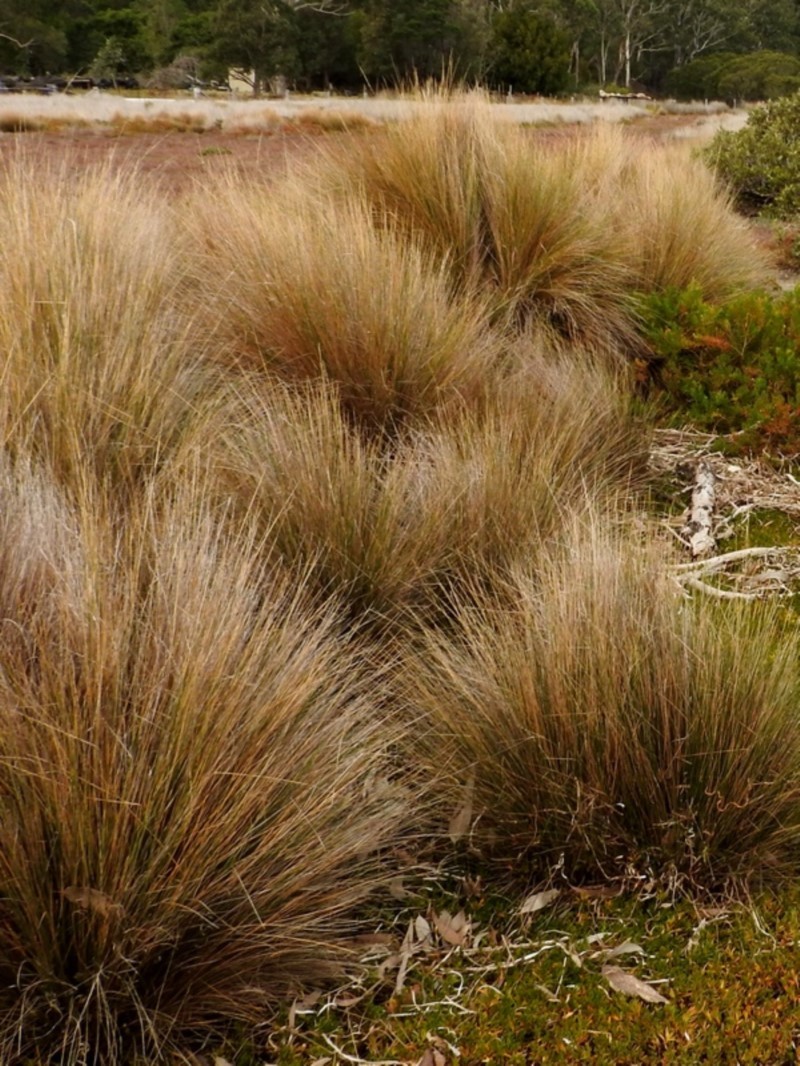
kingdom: Plantae
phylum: Tracheophyta
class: Liliopsida
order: Poales
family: Poaceae
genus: Austrostipa
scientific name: Austrostipa stipoides
